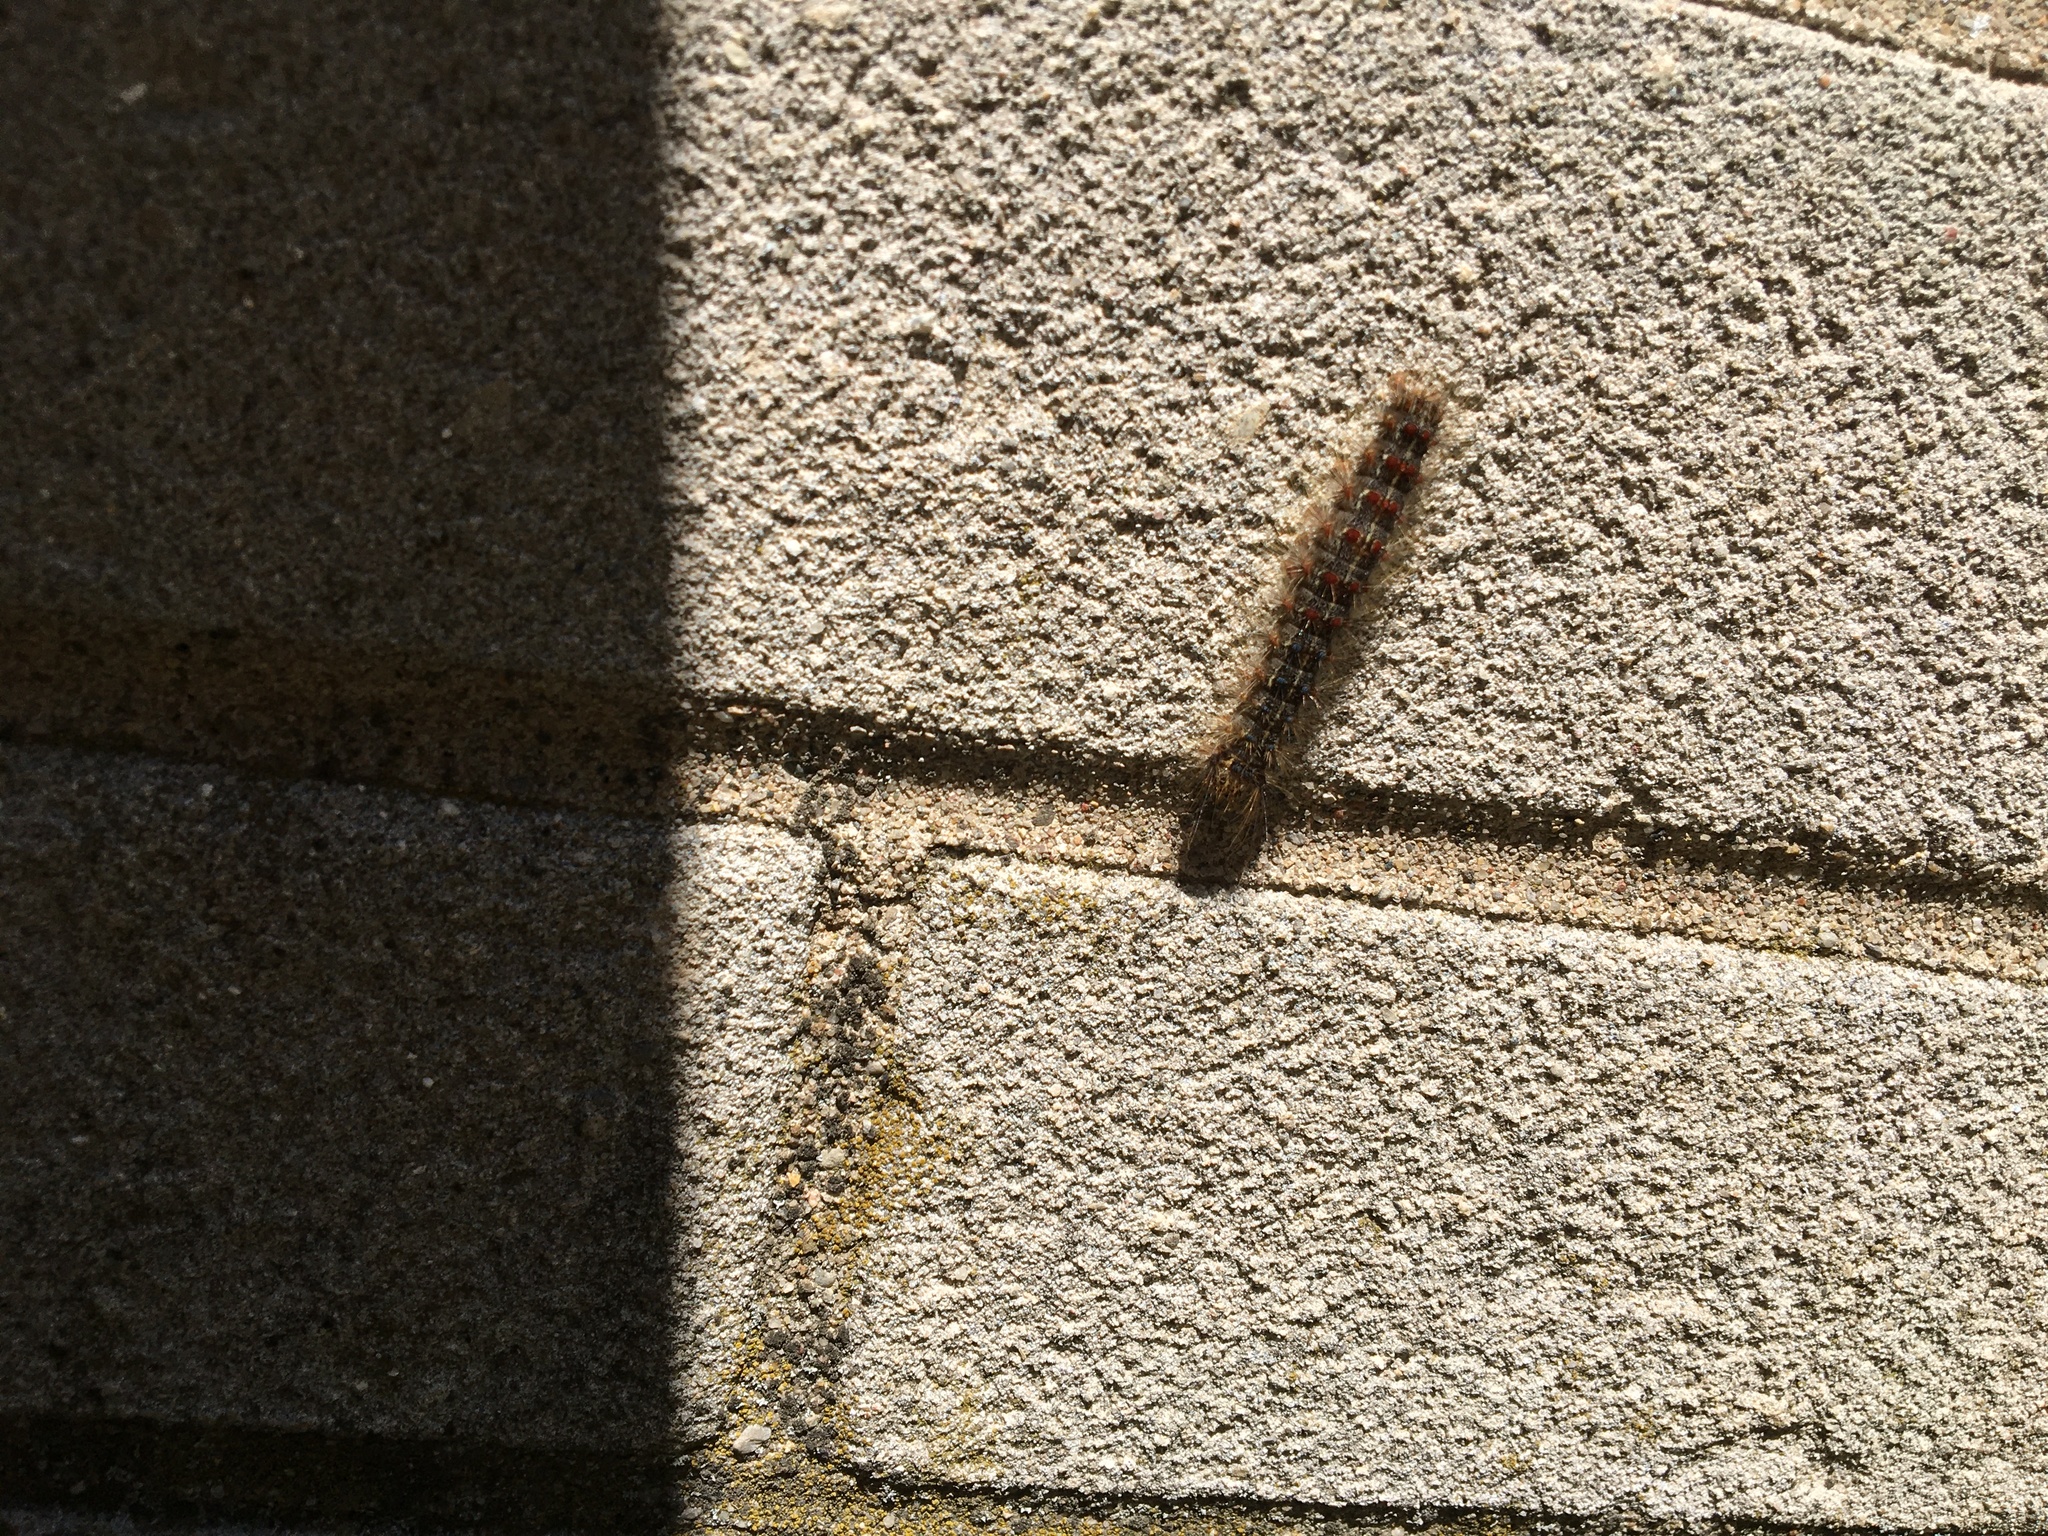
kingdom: Animalia
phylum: Arthropoda
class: Insecta
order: Lepidoptera
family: Erebidae
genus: Lymantria
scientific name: Lymantria dispar
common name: Gypsy moth
